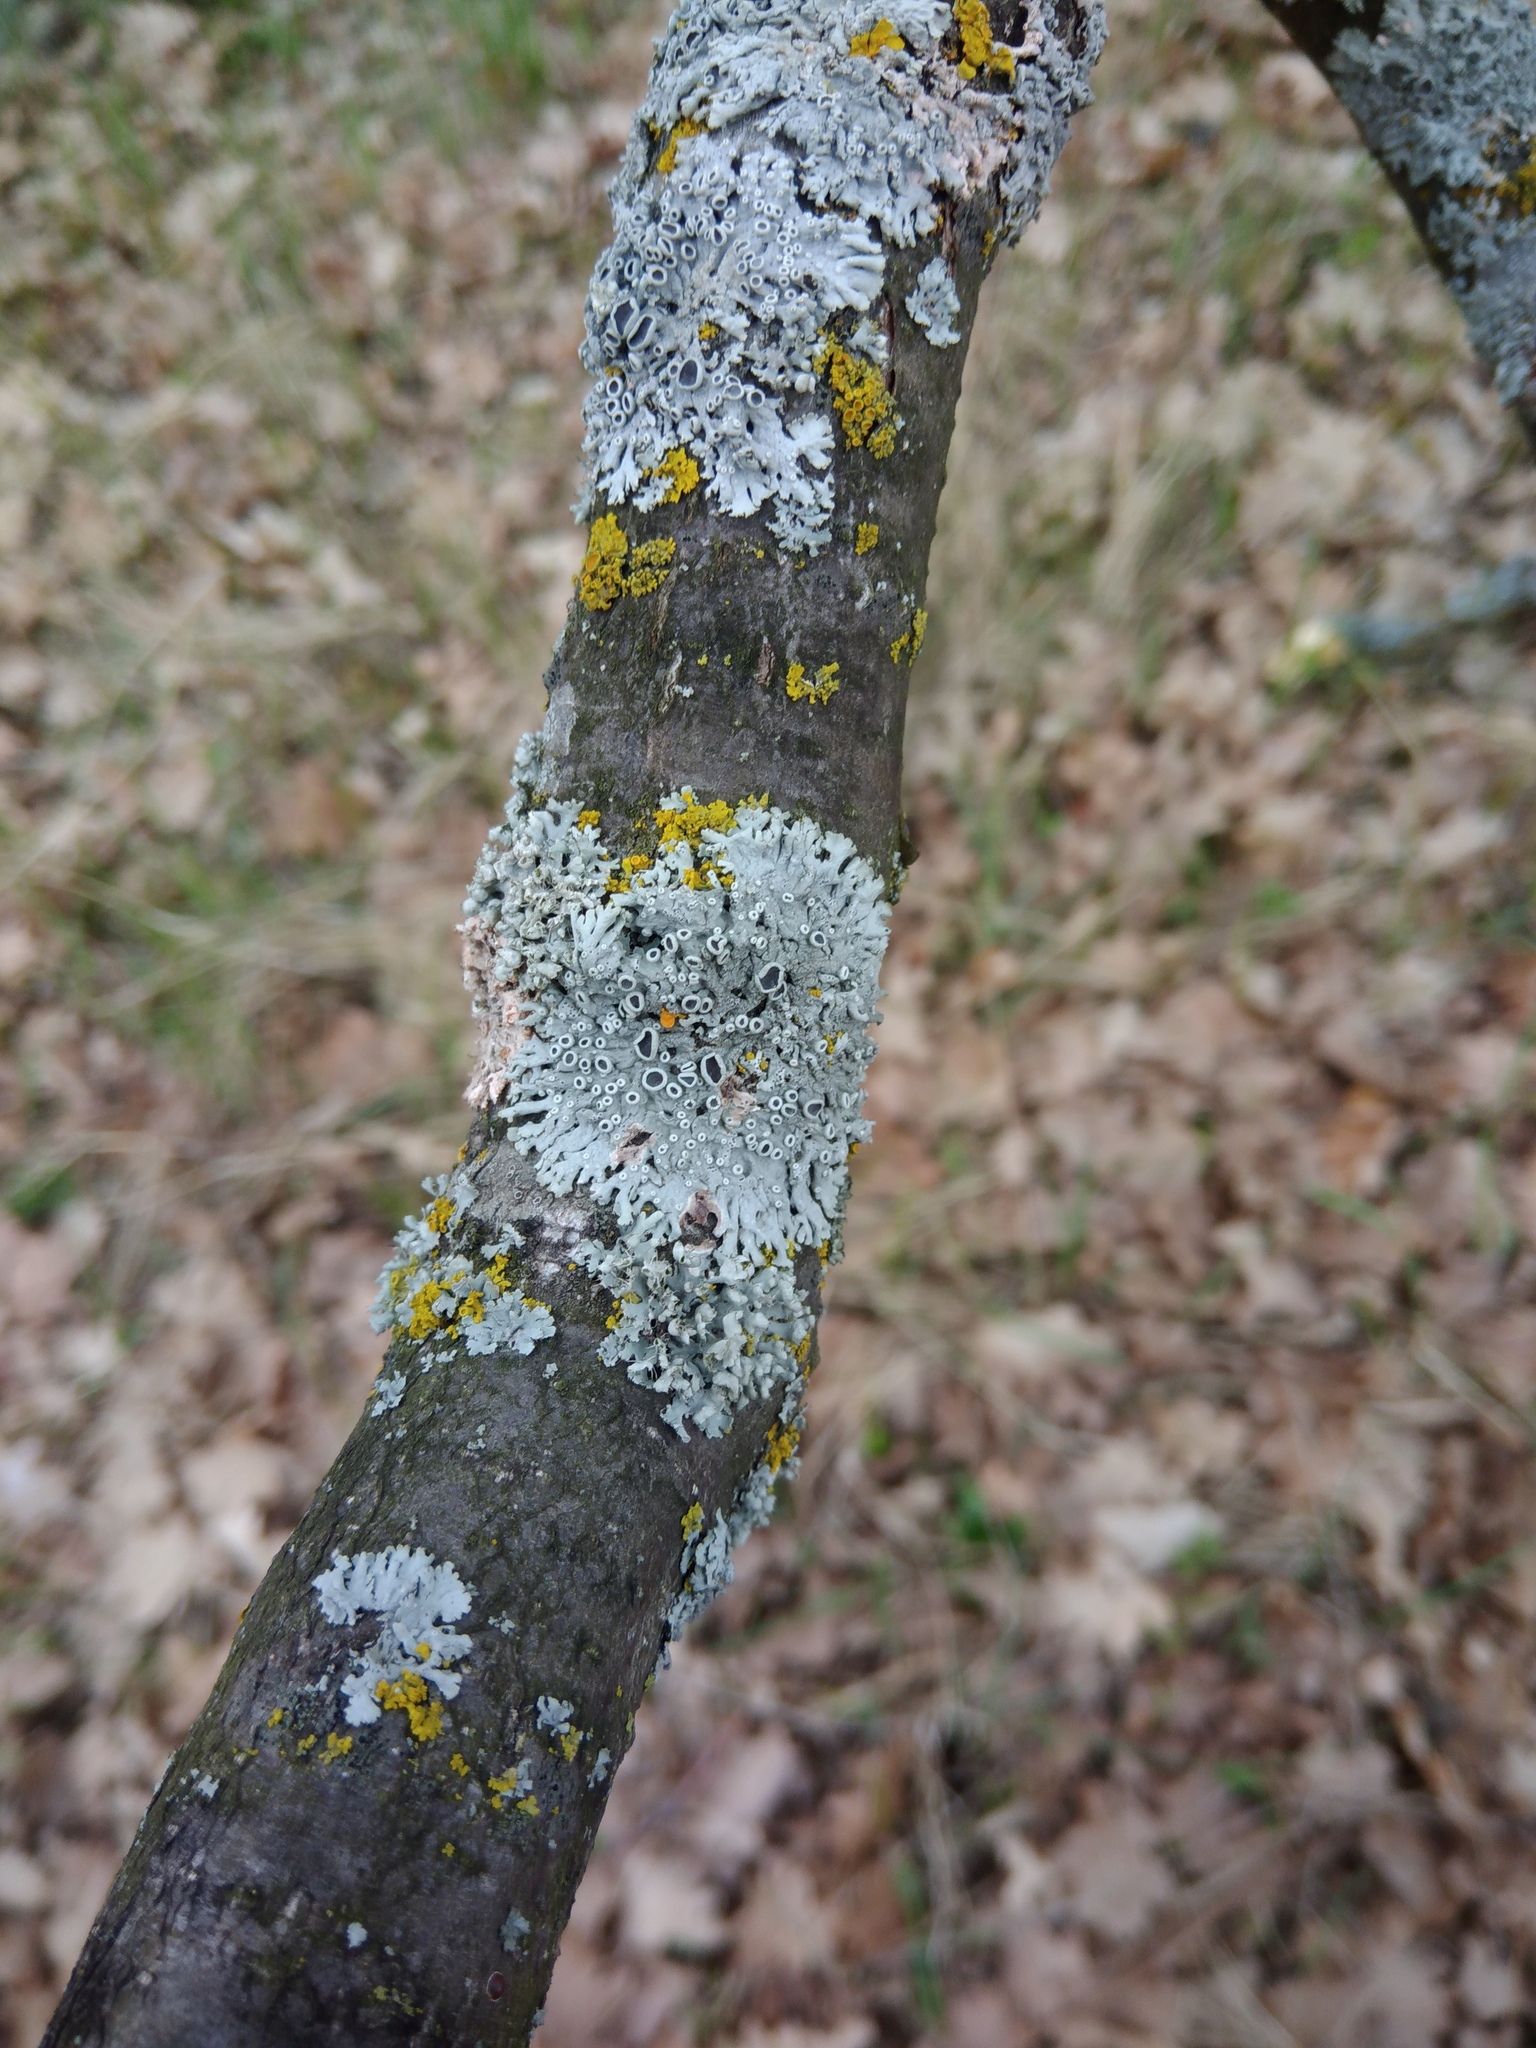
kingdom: Fungi
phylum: Ascomycota
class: Lecanoromycetes
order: Caliciales
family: Physciaceae
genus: Physcia
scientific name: Physcia stellaris
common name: Star rosette lichen
